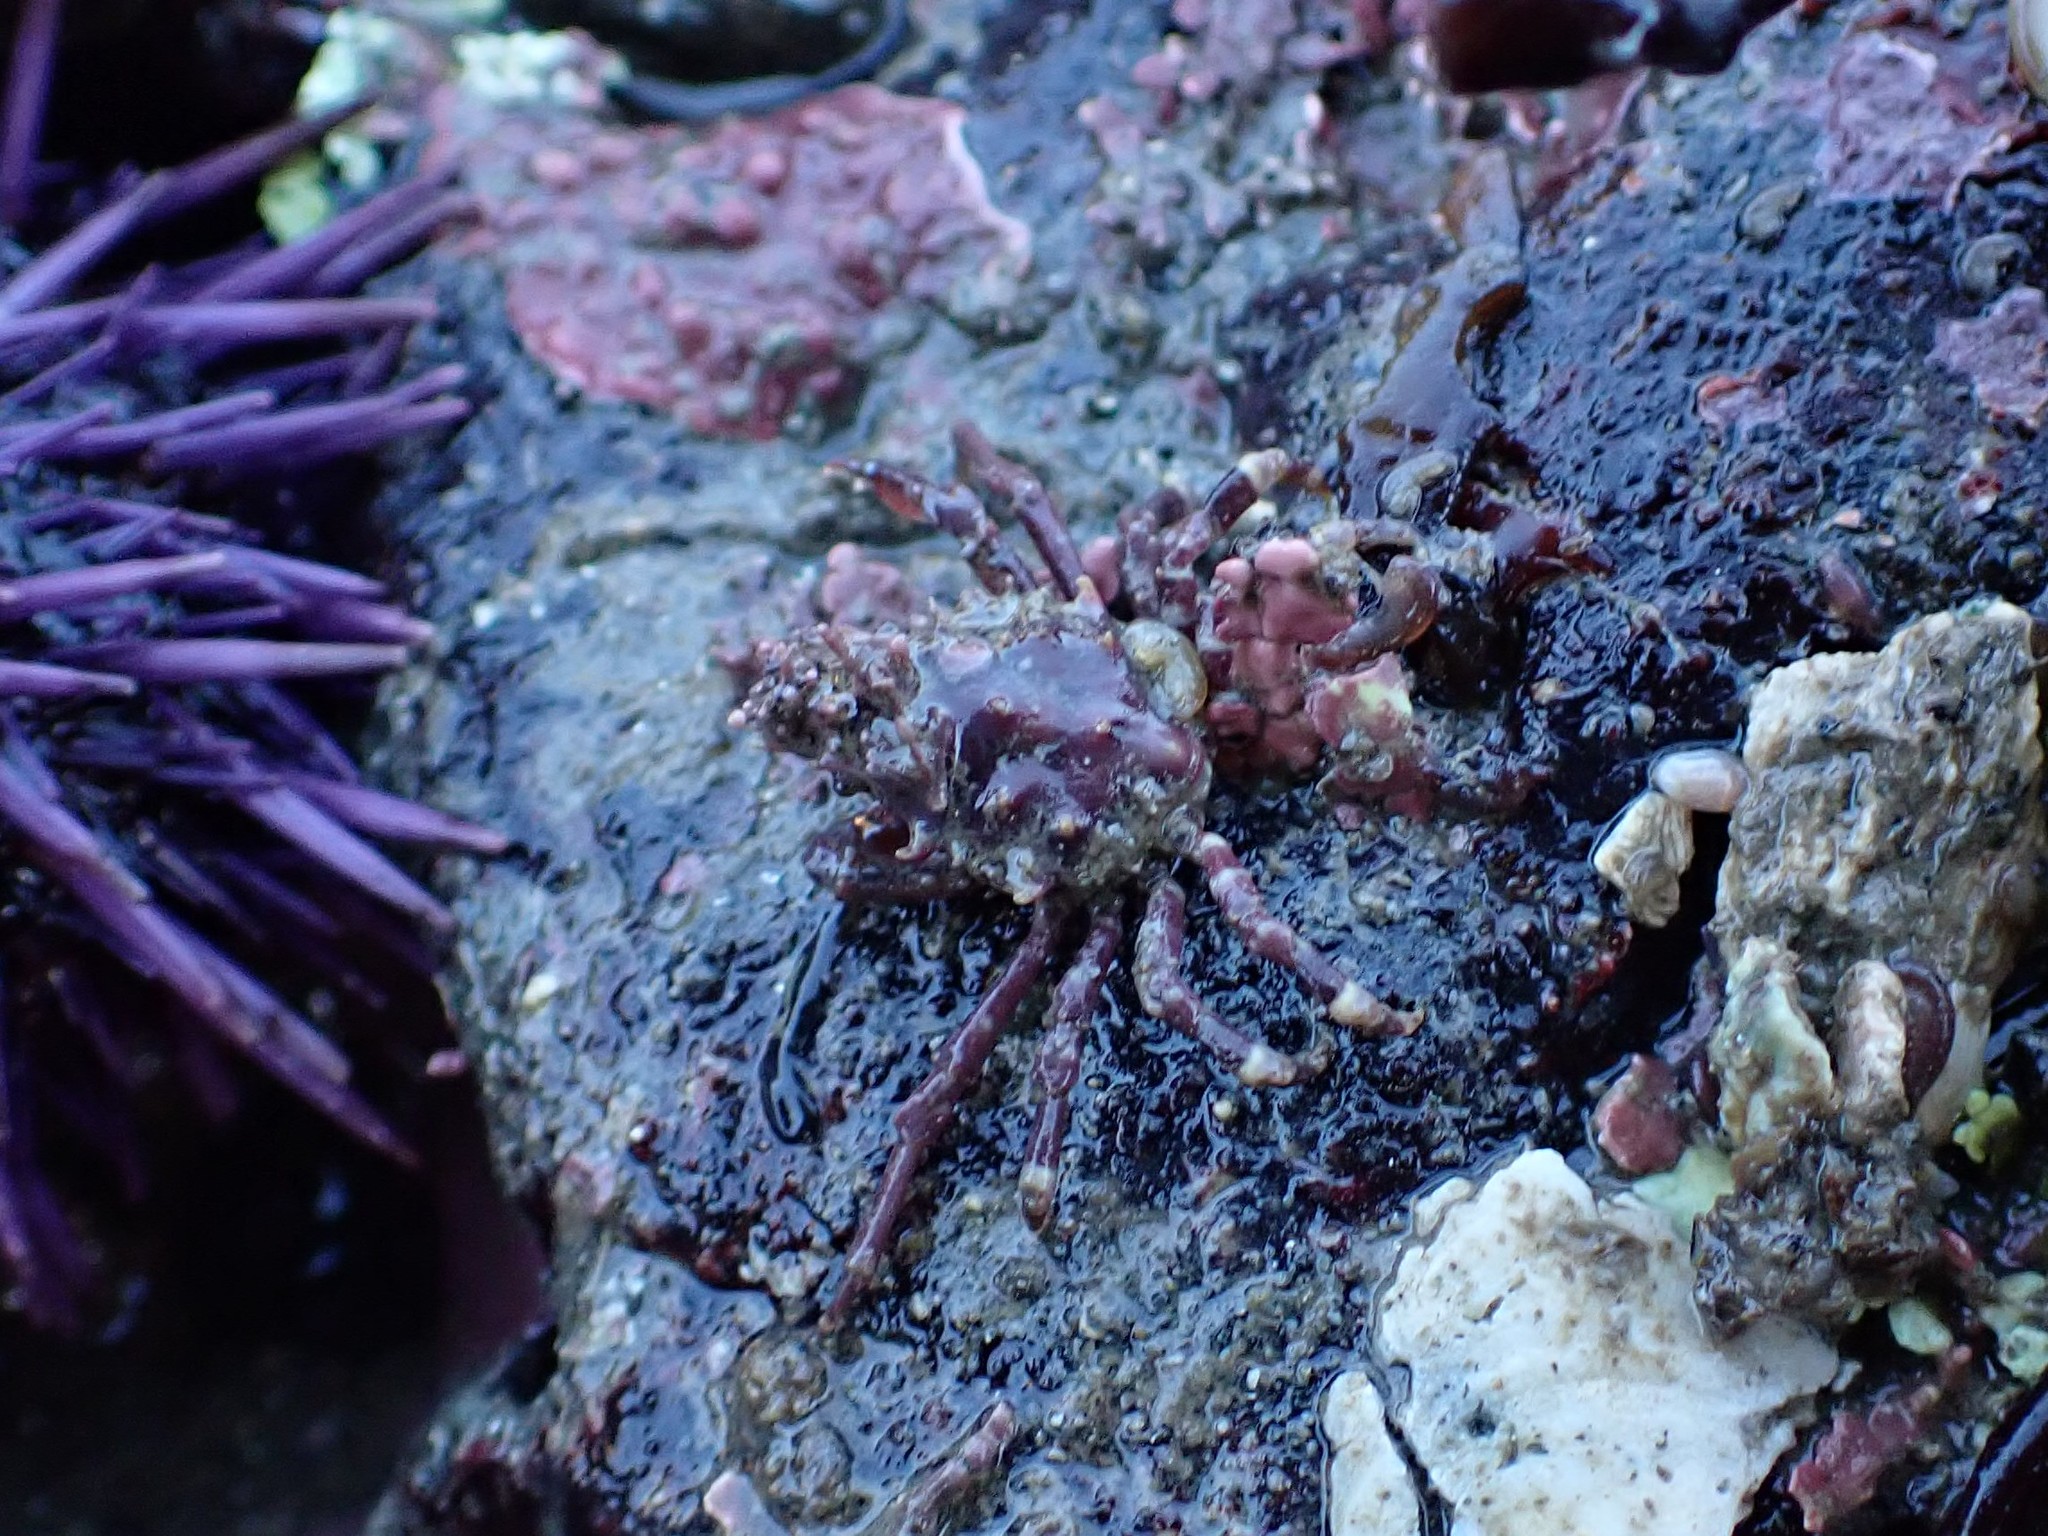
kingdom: Animalia
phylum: Arthropoda
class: Malacostraca
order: Decapoda
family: Epialtidae
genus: Pugettia
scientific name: Pugettia richii
